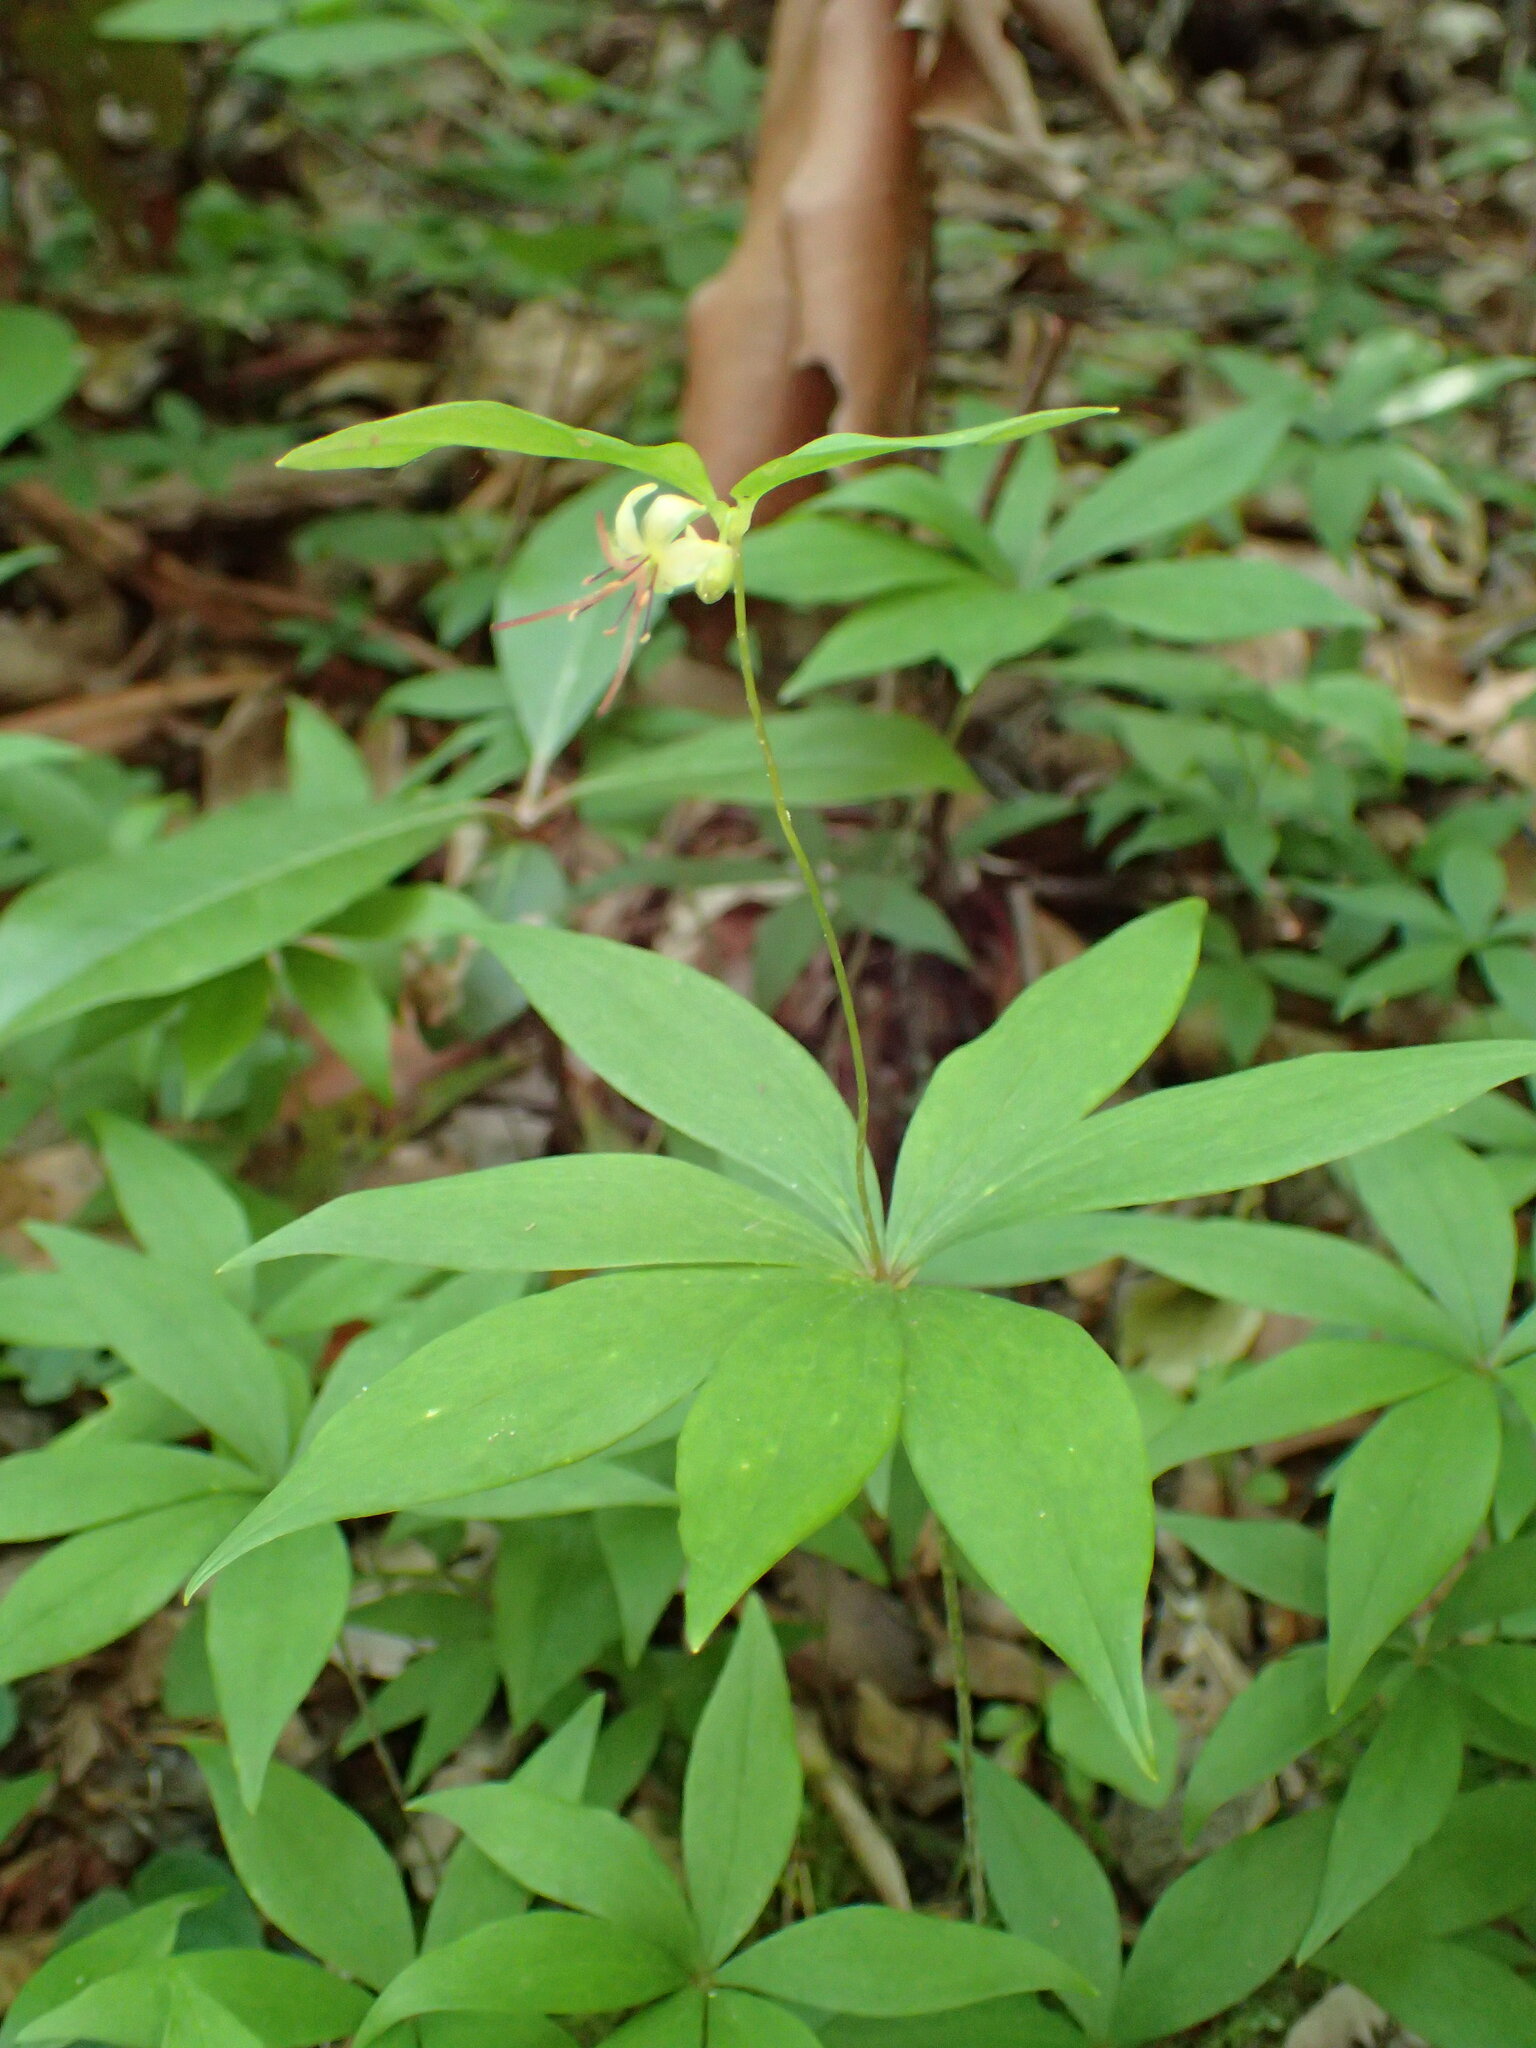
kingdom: Plantae
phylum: Tracheophyta
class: Liliopsida
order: Liliales
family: Liliaceae
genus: Medeola
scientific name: Medeola virginiana
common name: Indian cucumber-root
